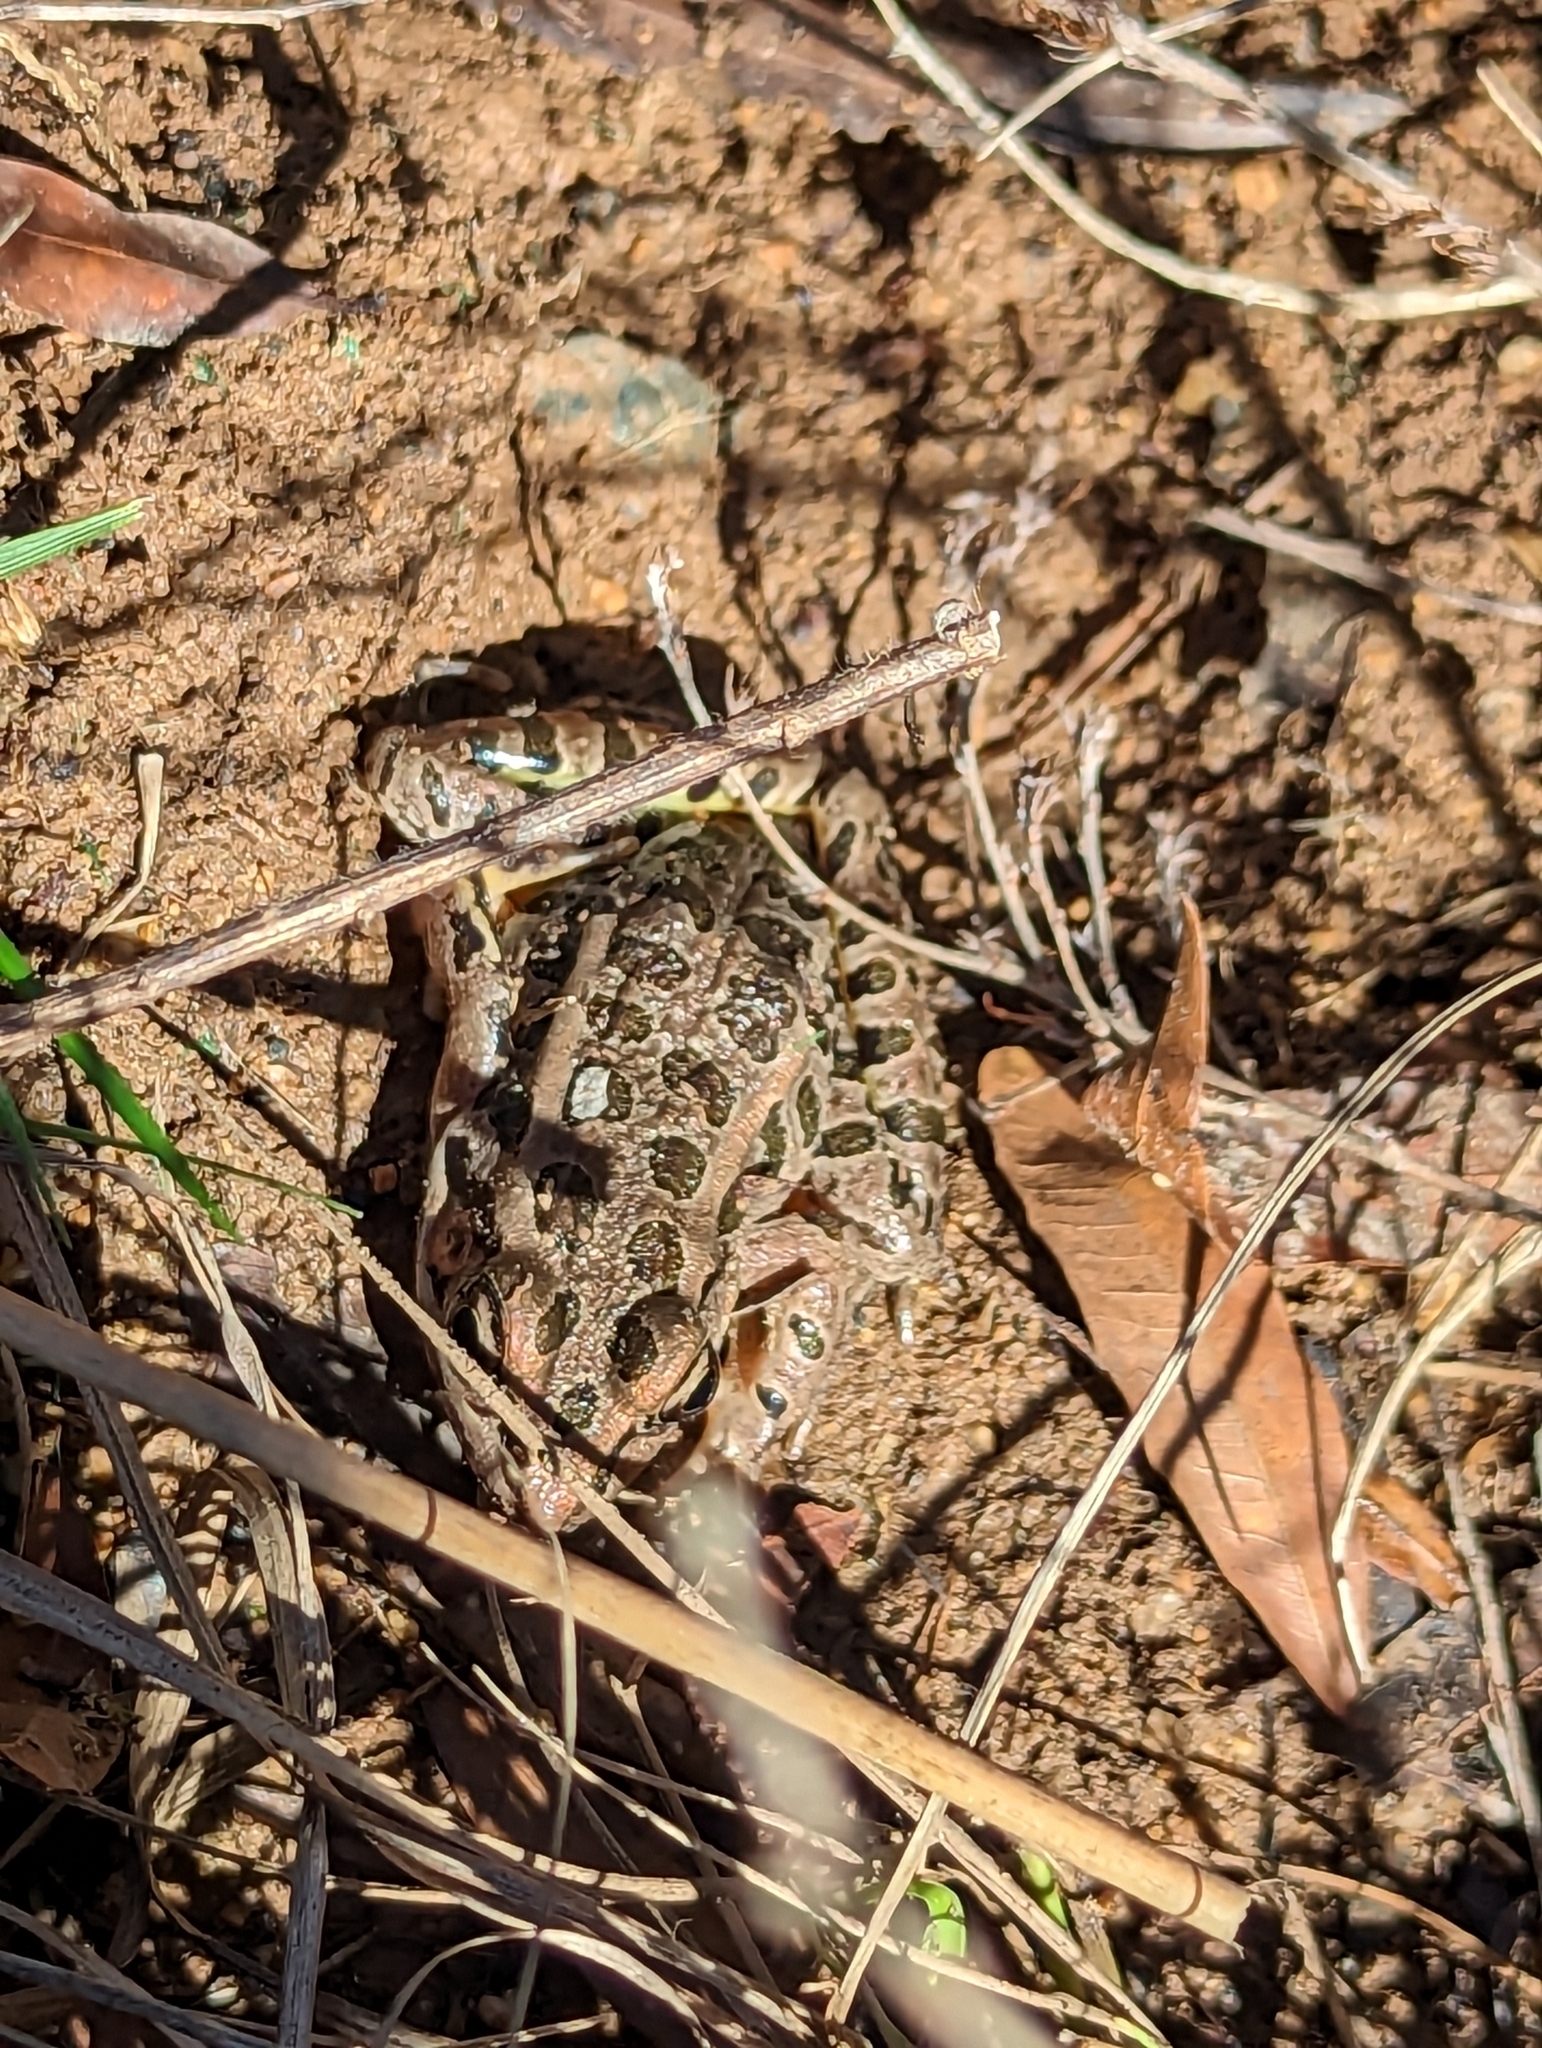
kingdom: Animalia
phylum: Chordata
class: Amphibia
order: Anura
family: Ranidae
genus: Lithobates
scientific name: Lithobates palustris
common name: Pickerel frog
